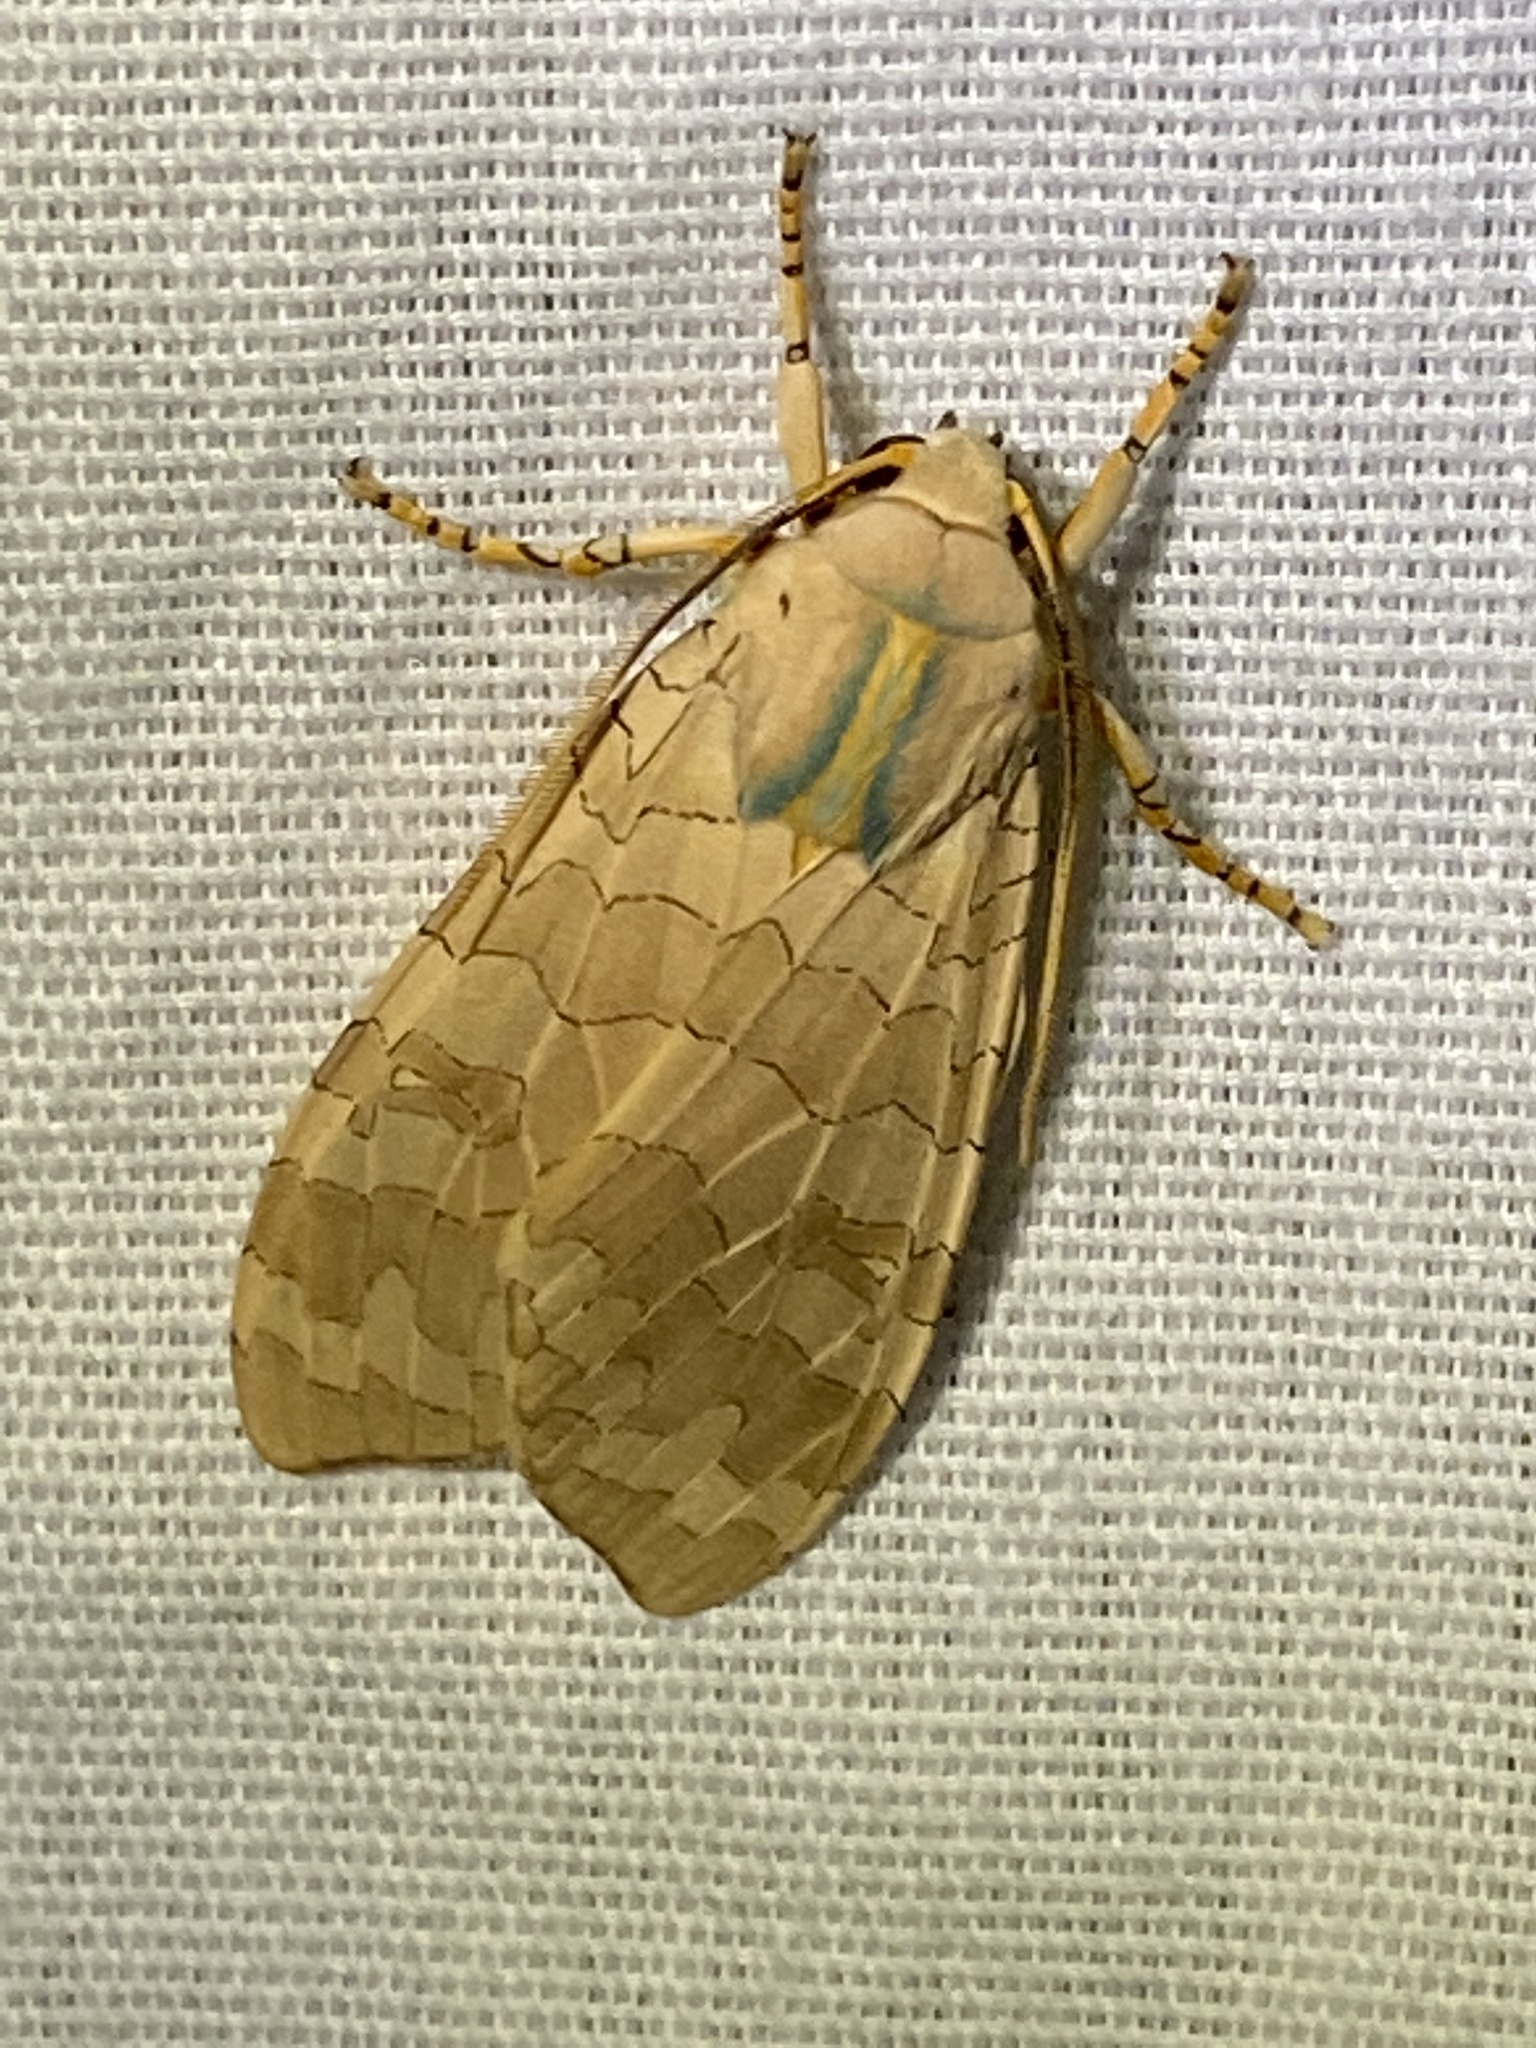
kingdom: Animalia
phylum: Arthropoda
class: Insecta
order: Lepidoptera
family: Erebidae
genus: Halysidota
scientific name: Halysidota
